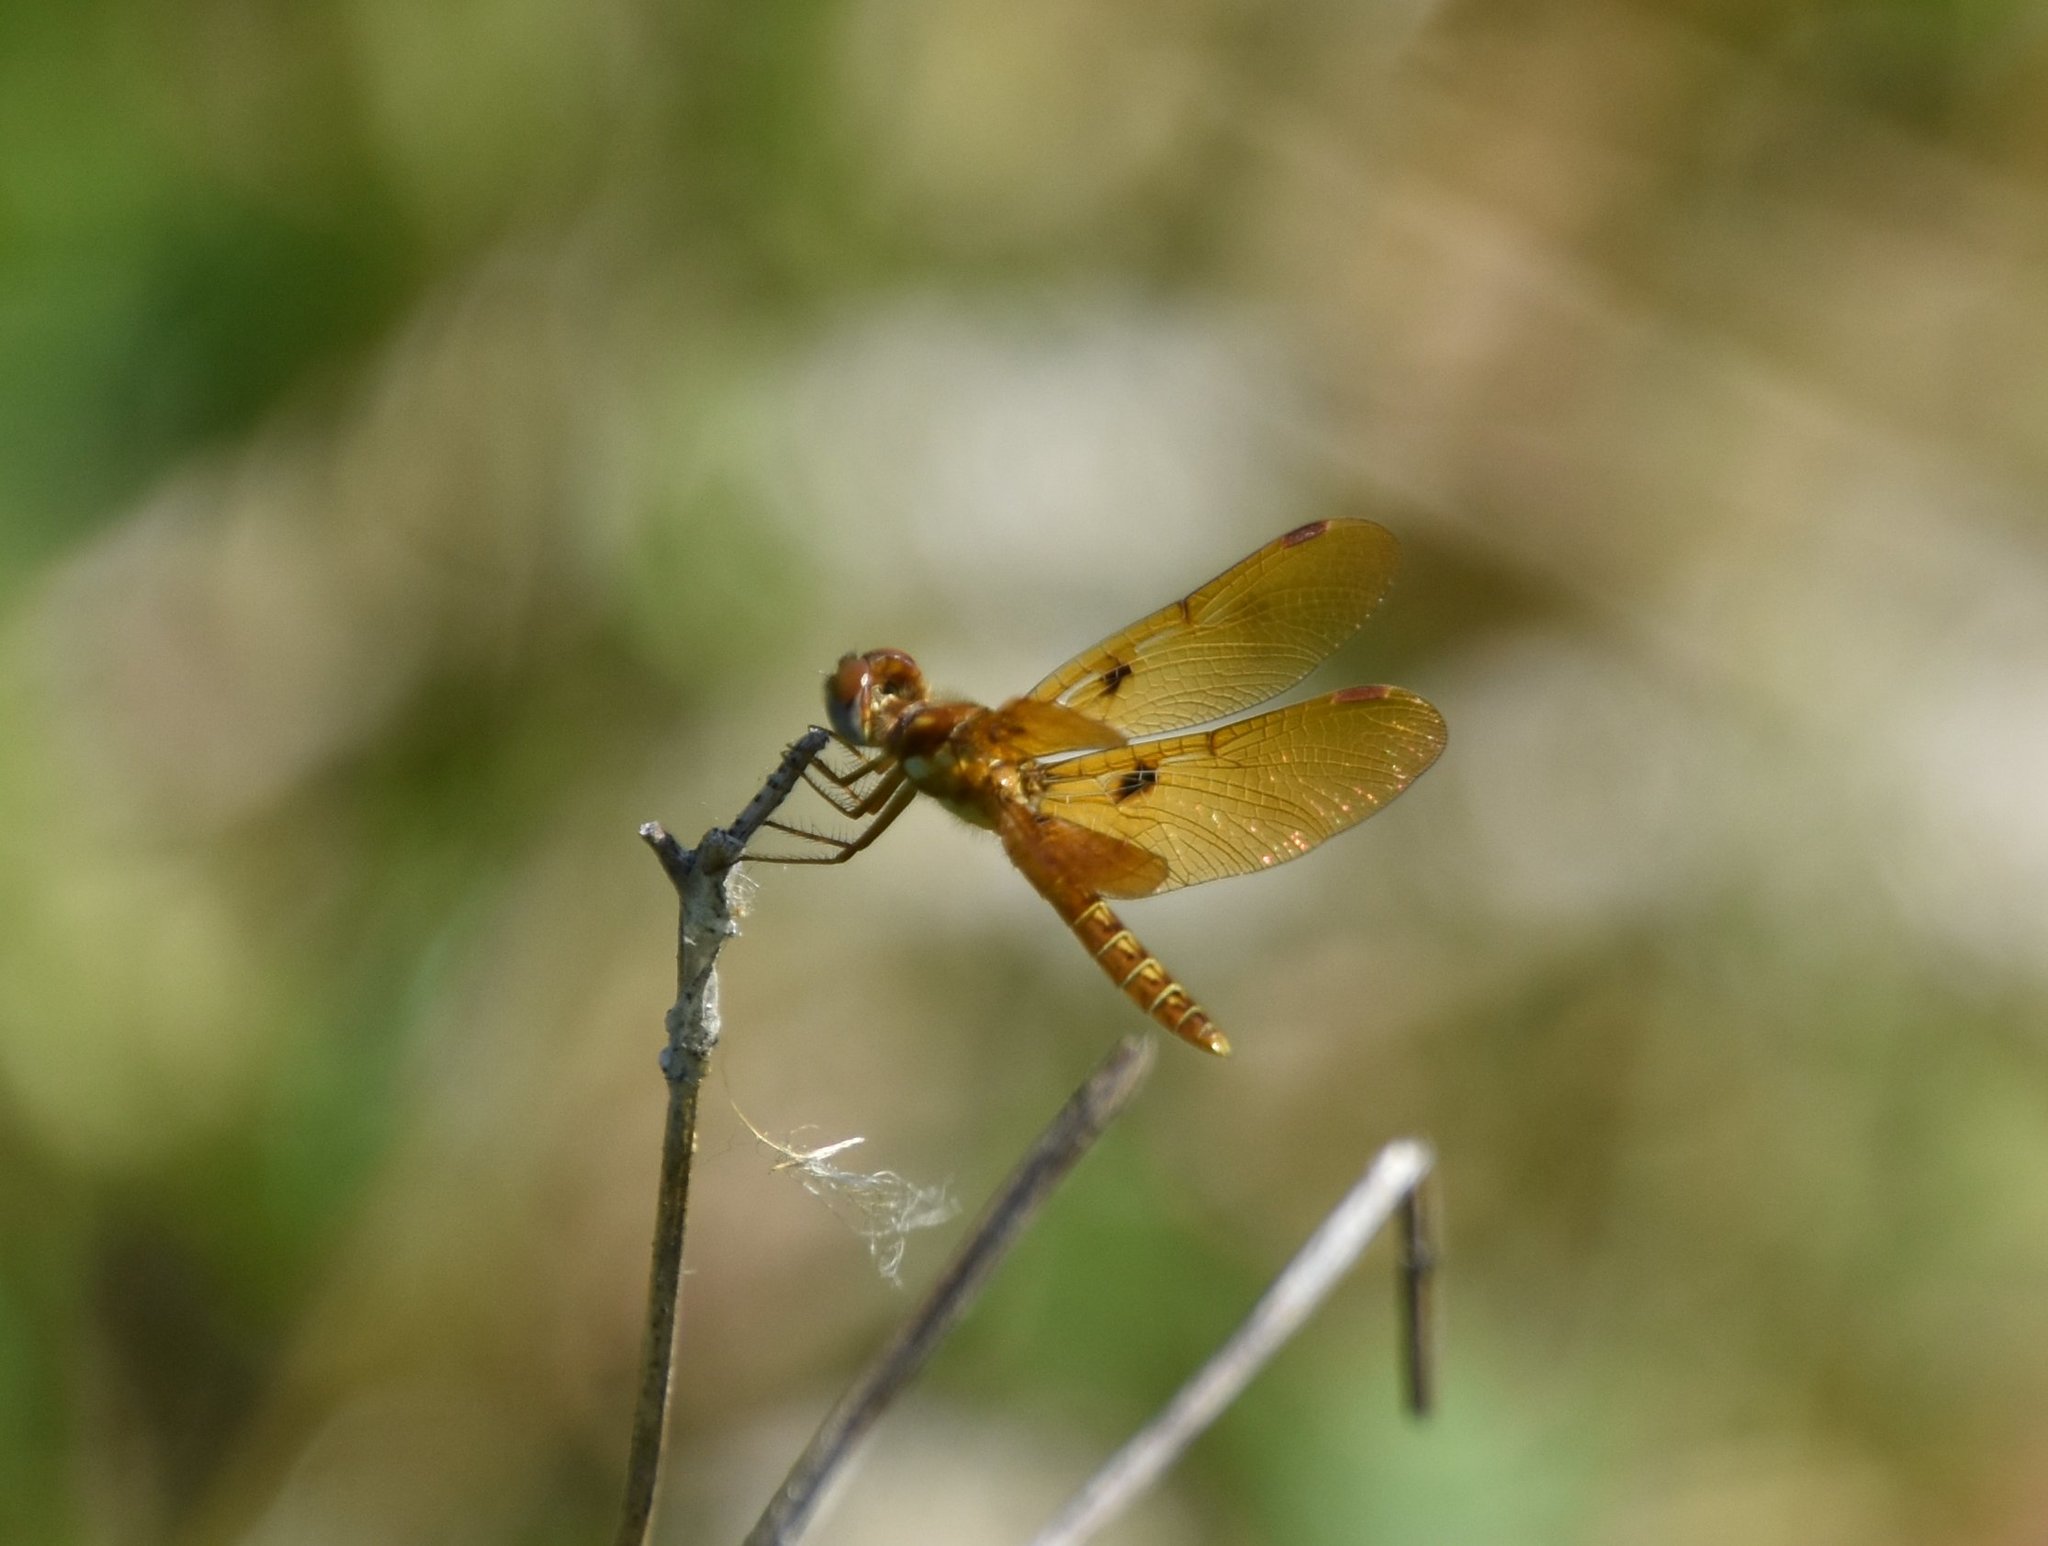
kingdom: Animalia
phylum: Arthropoda
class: Insecta
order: Odonata
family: Libellulidae
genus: Perithemis
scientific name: Perithemis tenera
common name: Eastern amberwing
